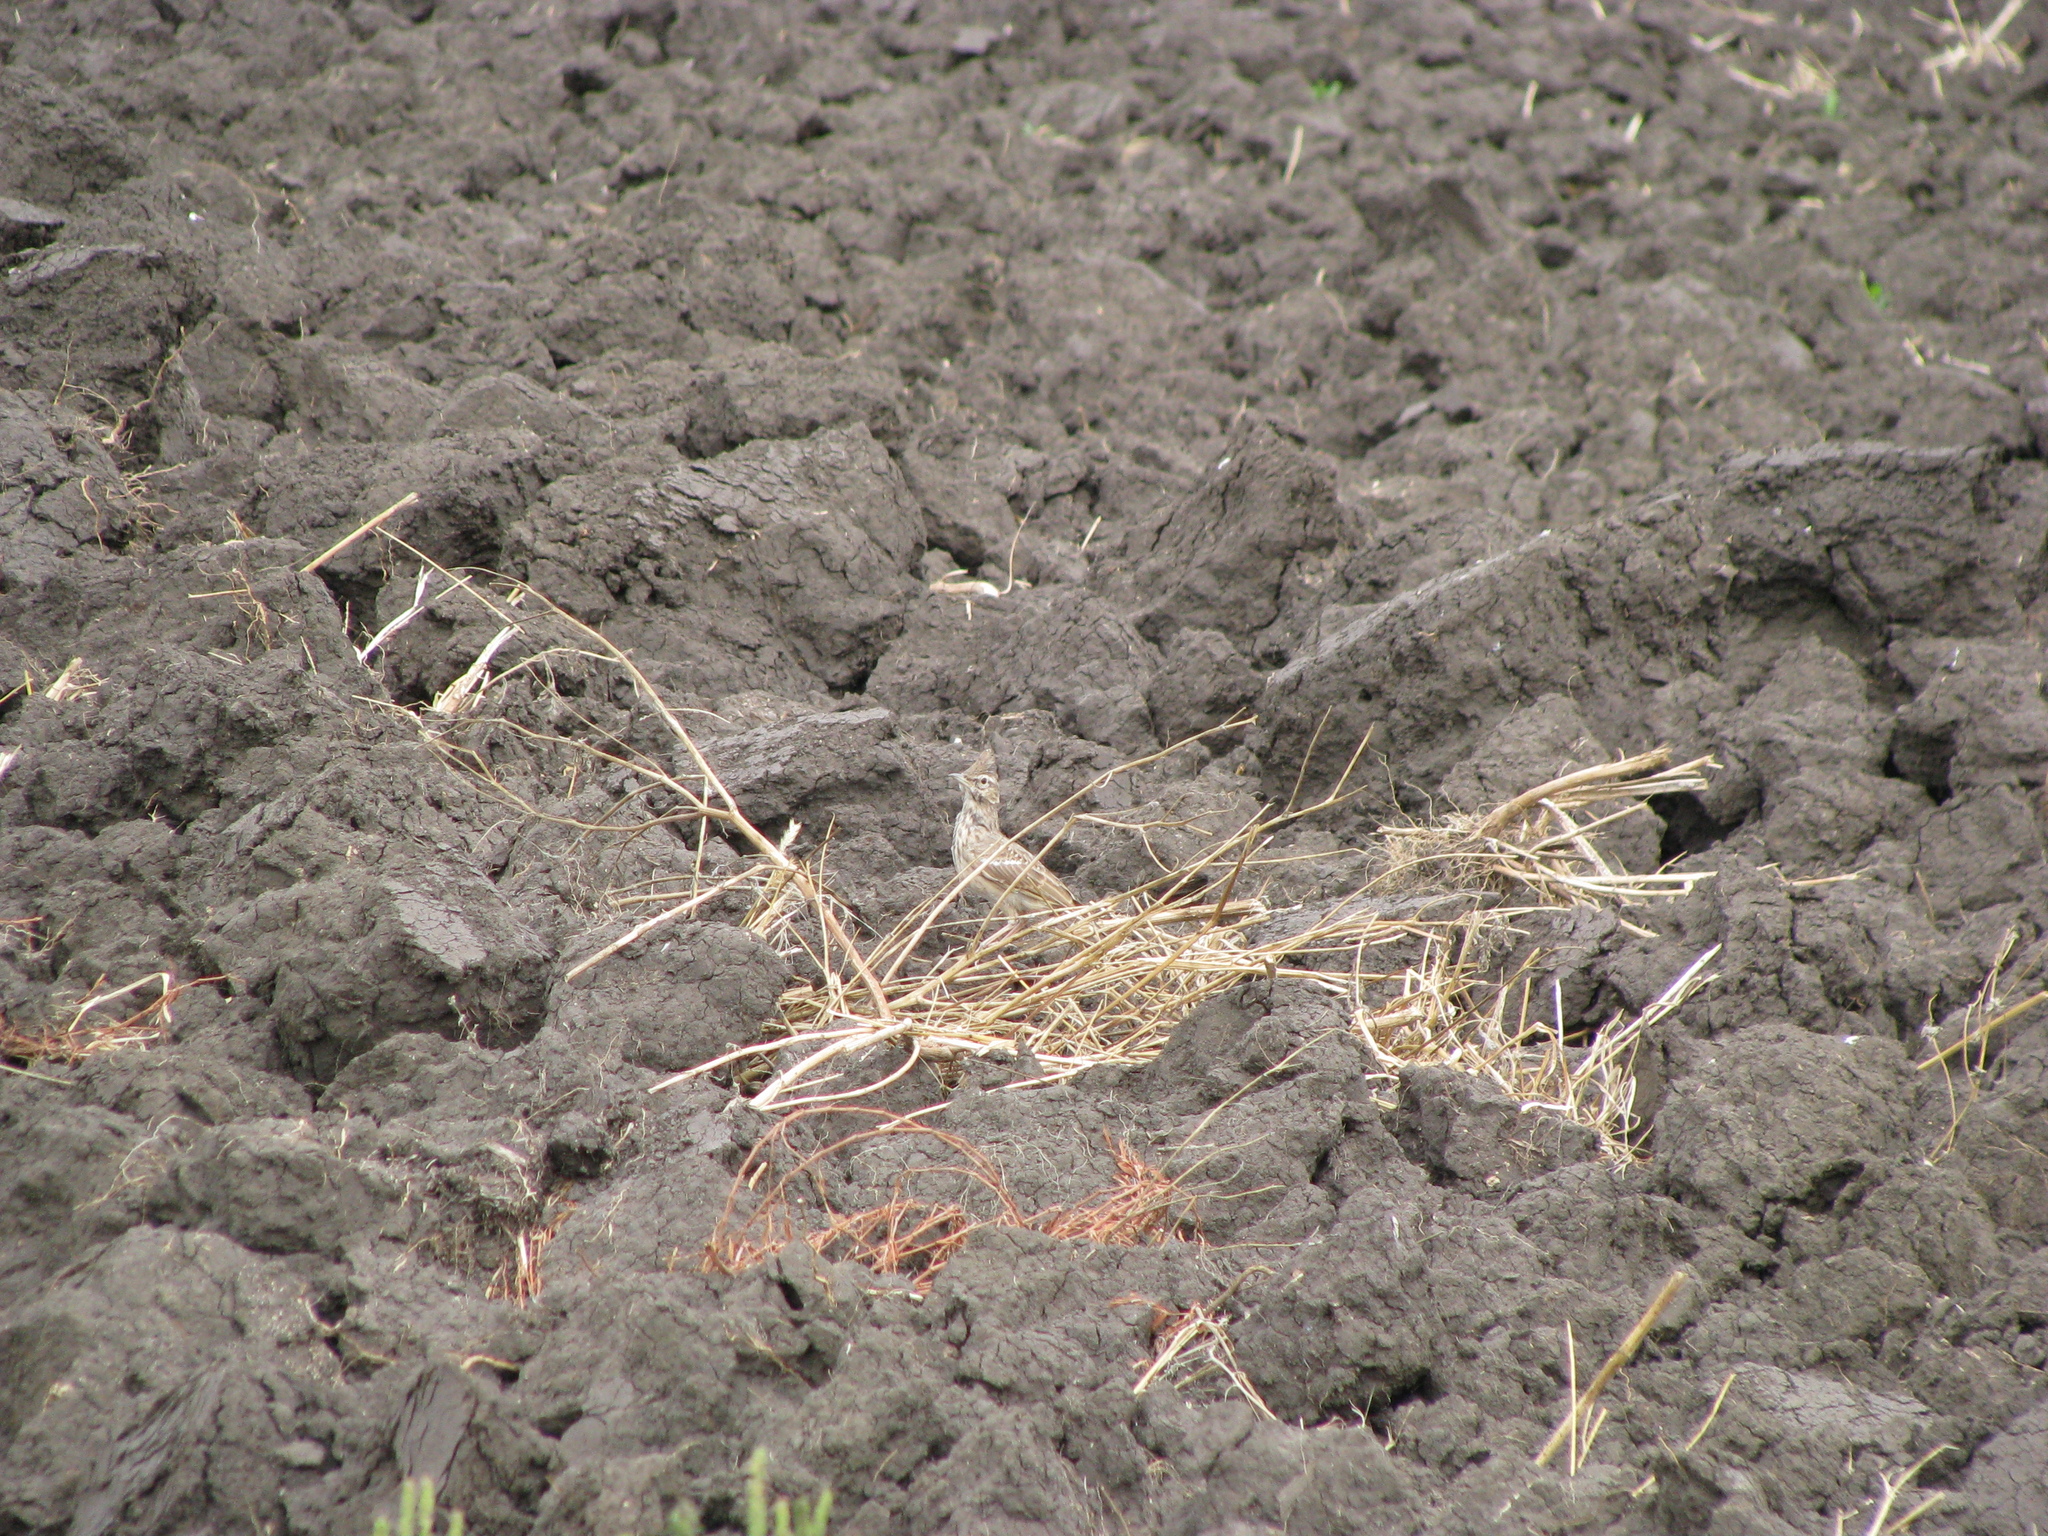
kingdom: Animalia
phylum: Chordata
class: Aves
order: Passeriformes
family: Alaudidae
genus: Galerida
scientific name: Galerida cristata
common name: Crested lark
